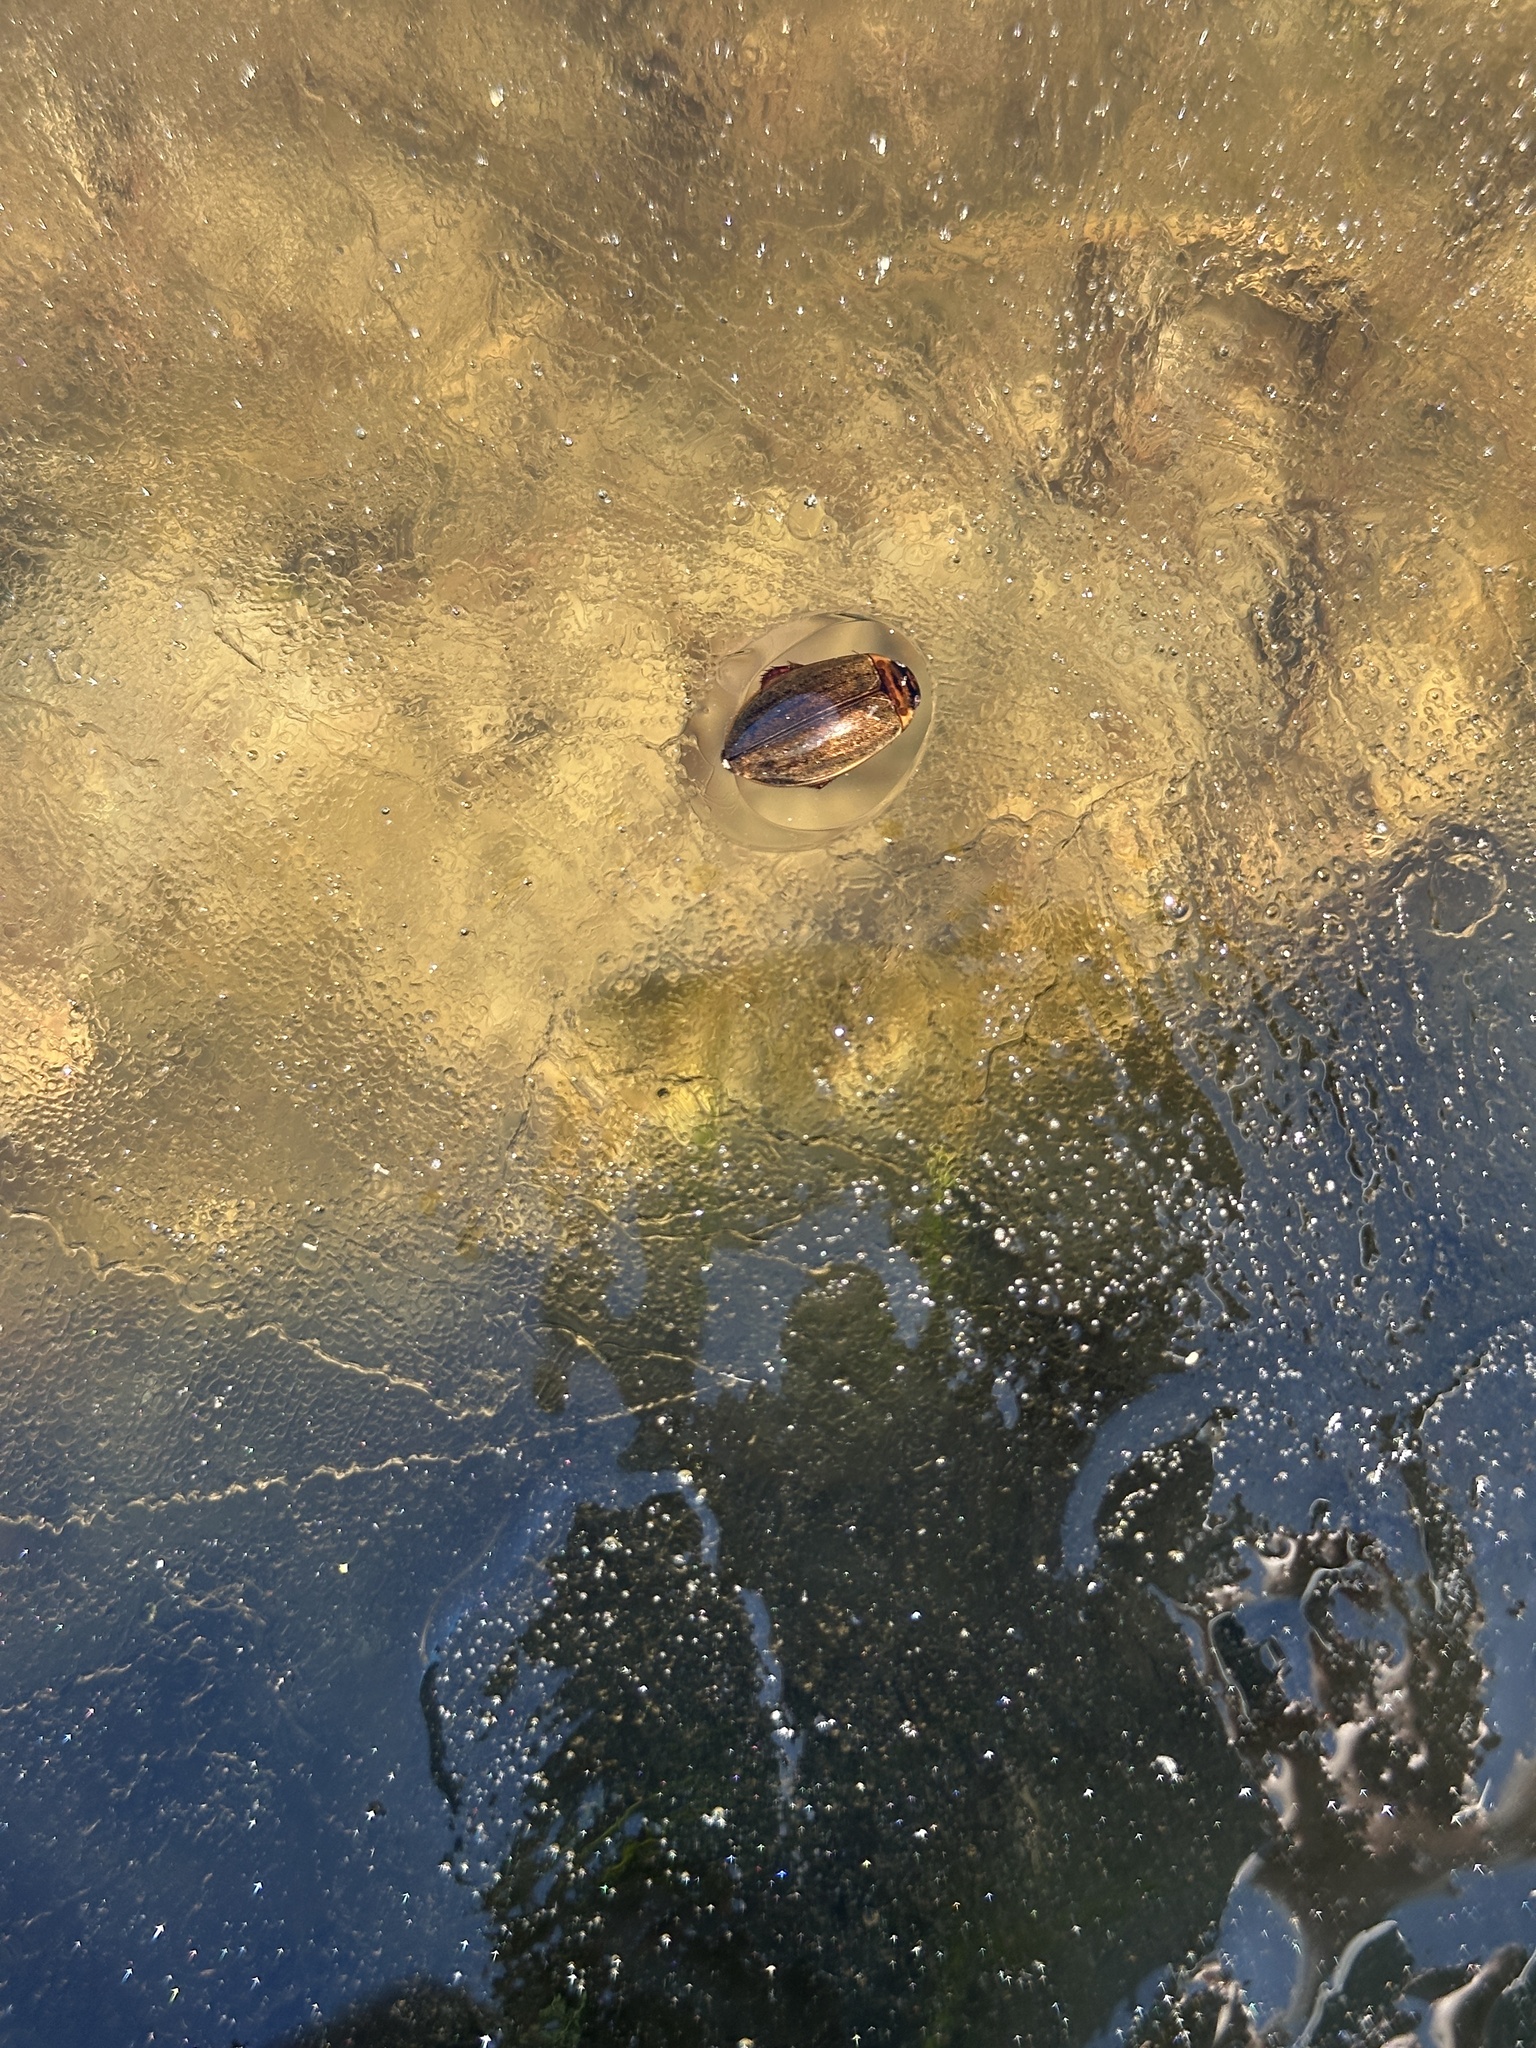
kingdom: Animalia
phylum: Arthropoda
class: Insecta
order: Coleoptera
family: Dytiscidae
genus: Rhantus
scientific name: Rhantus suturalis
